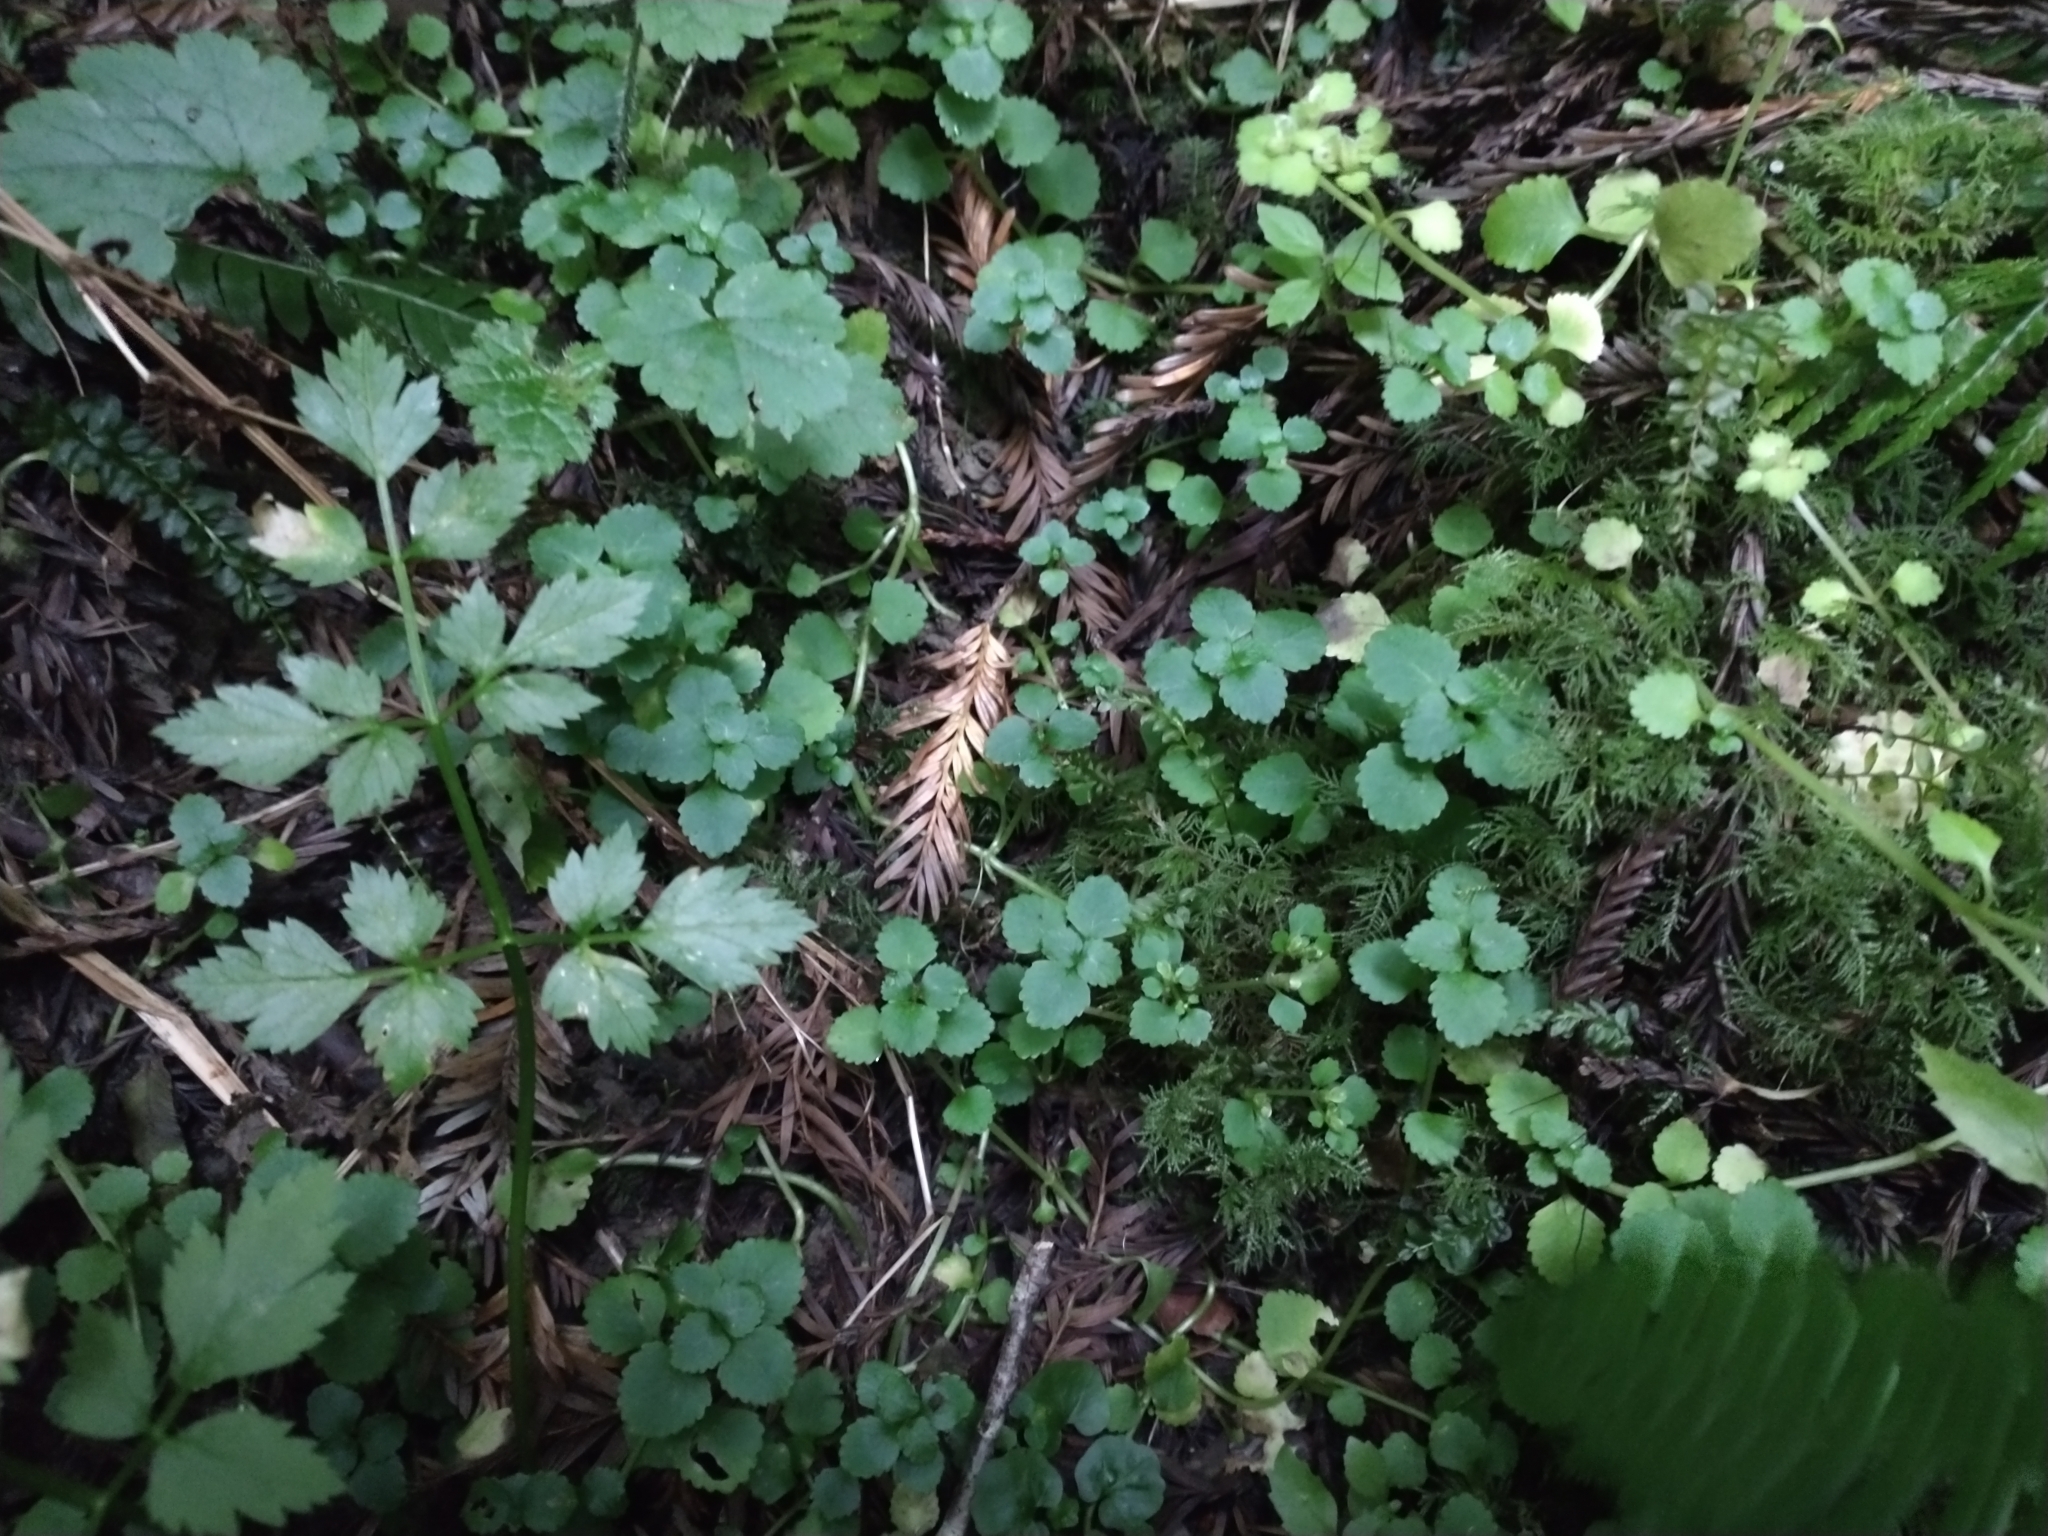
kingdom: Plantae
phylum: Tracheophyta
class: Magnoliopsida
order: Saxifragales
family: Saxifragaceae
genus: Chrysosplenium
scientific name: Chrysosplenium glechomifolium
